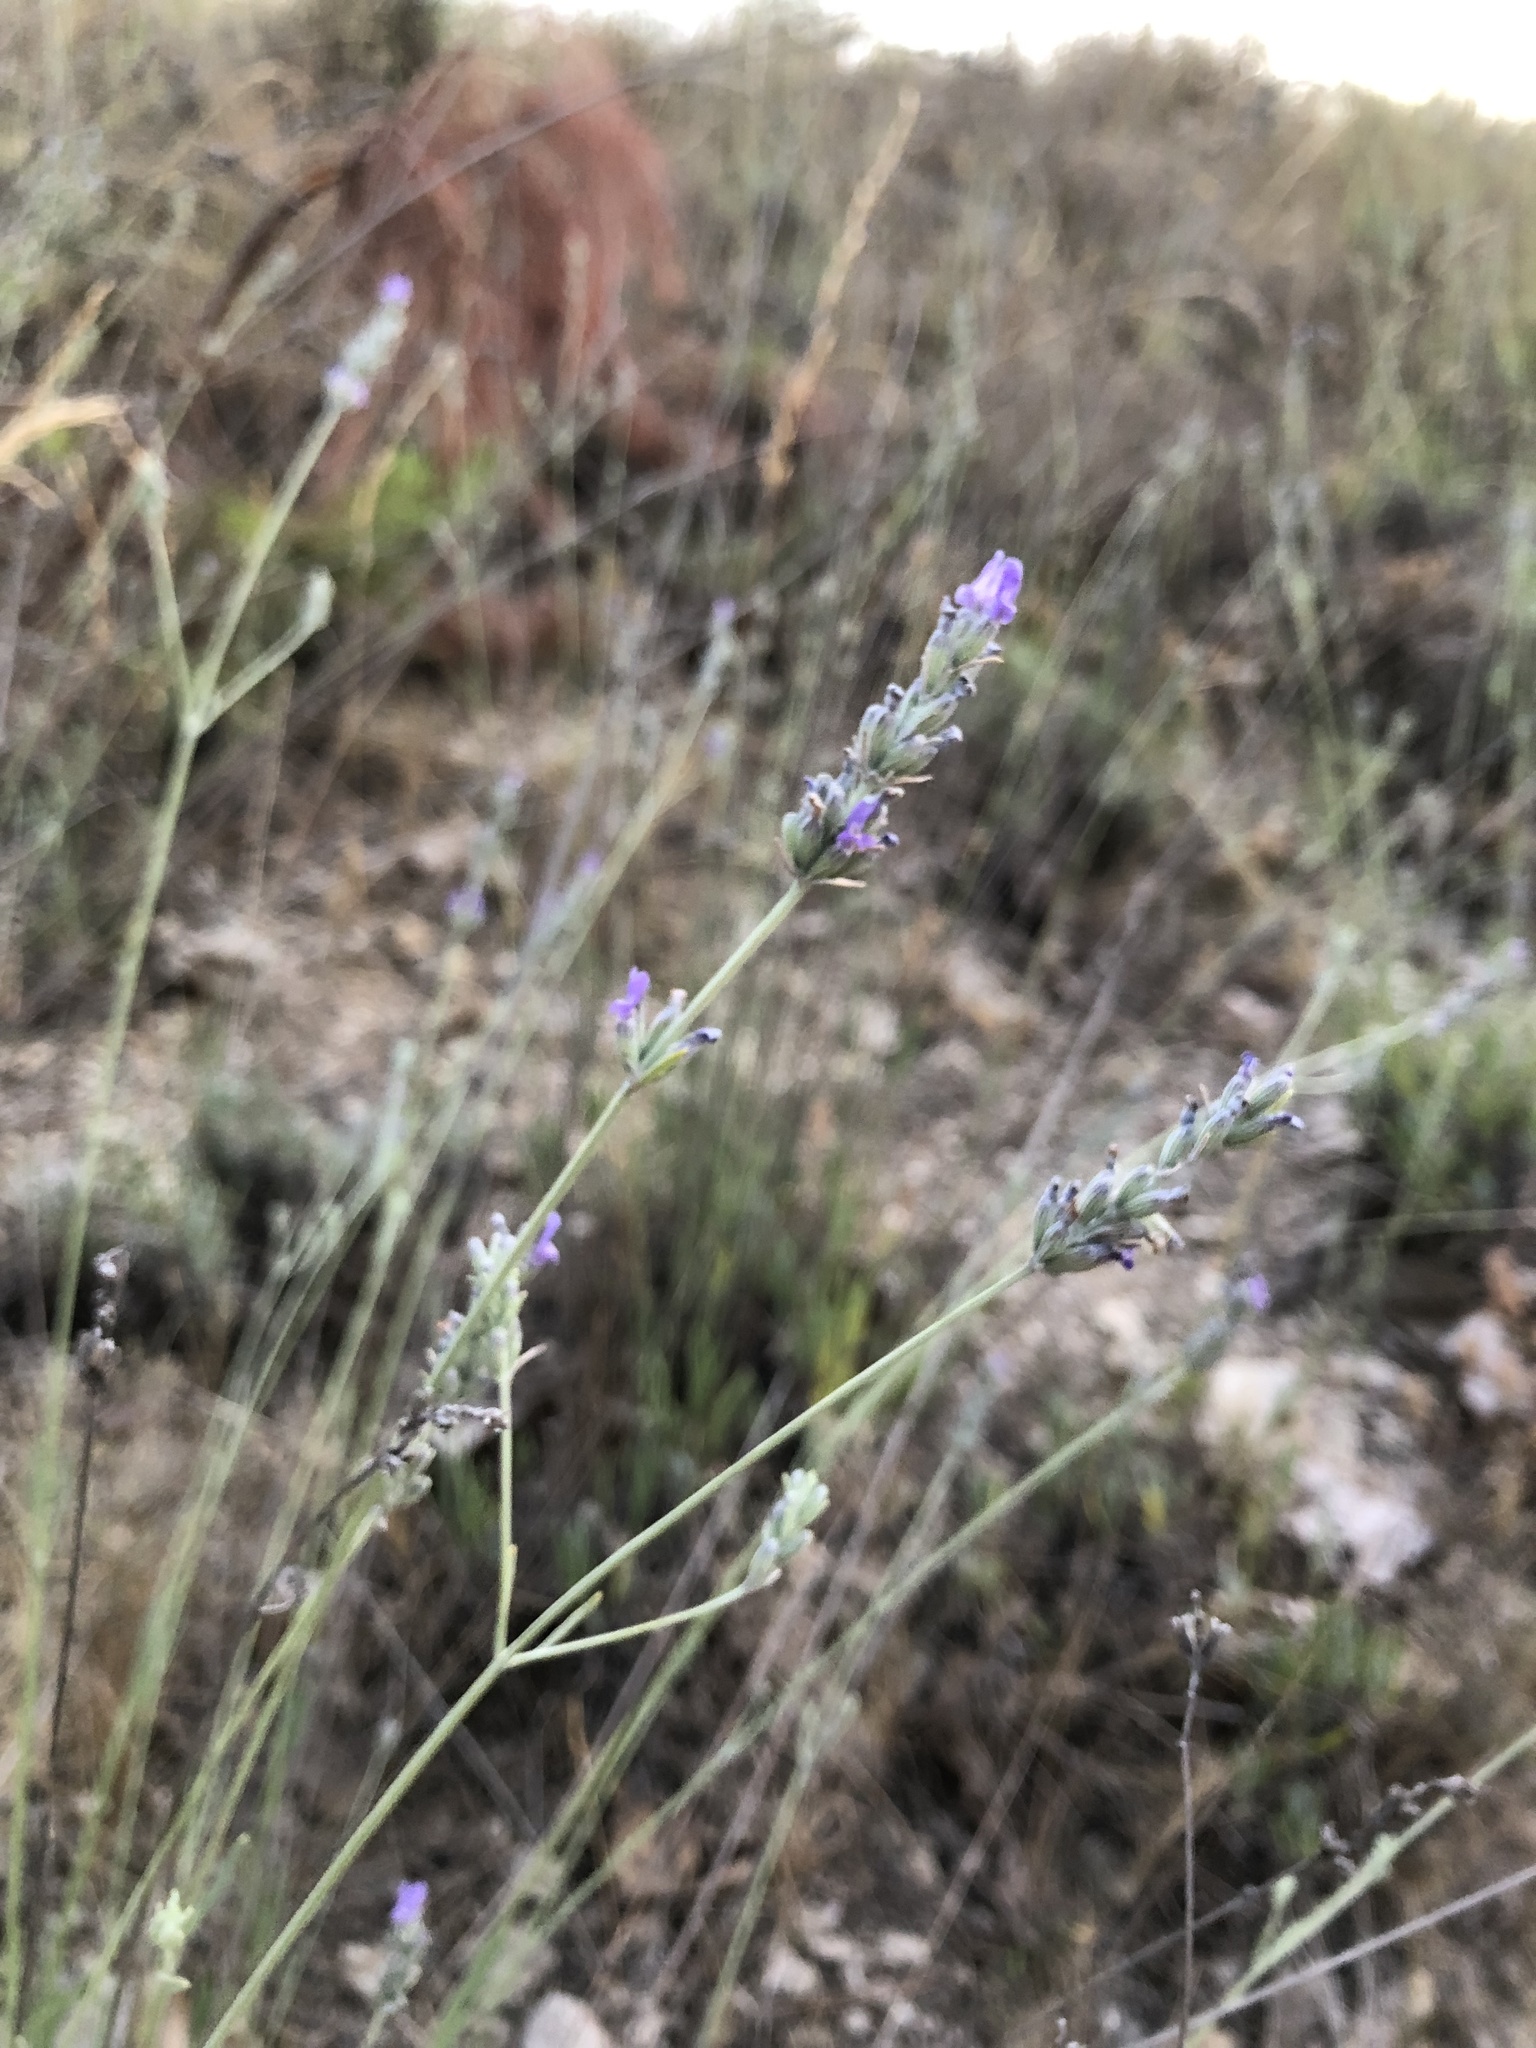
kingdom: Plantae
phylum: Tracheophyta
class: Magnoliopsida
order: Lamiales
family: Lamiaceae
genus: Lavandula
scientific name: Lavandula latifolia
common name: Spike lavendar
